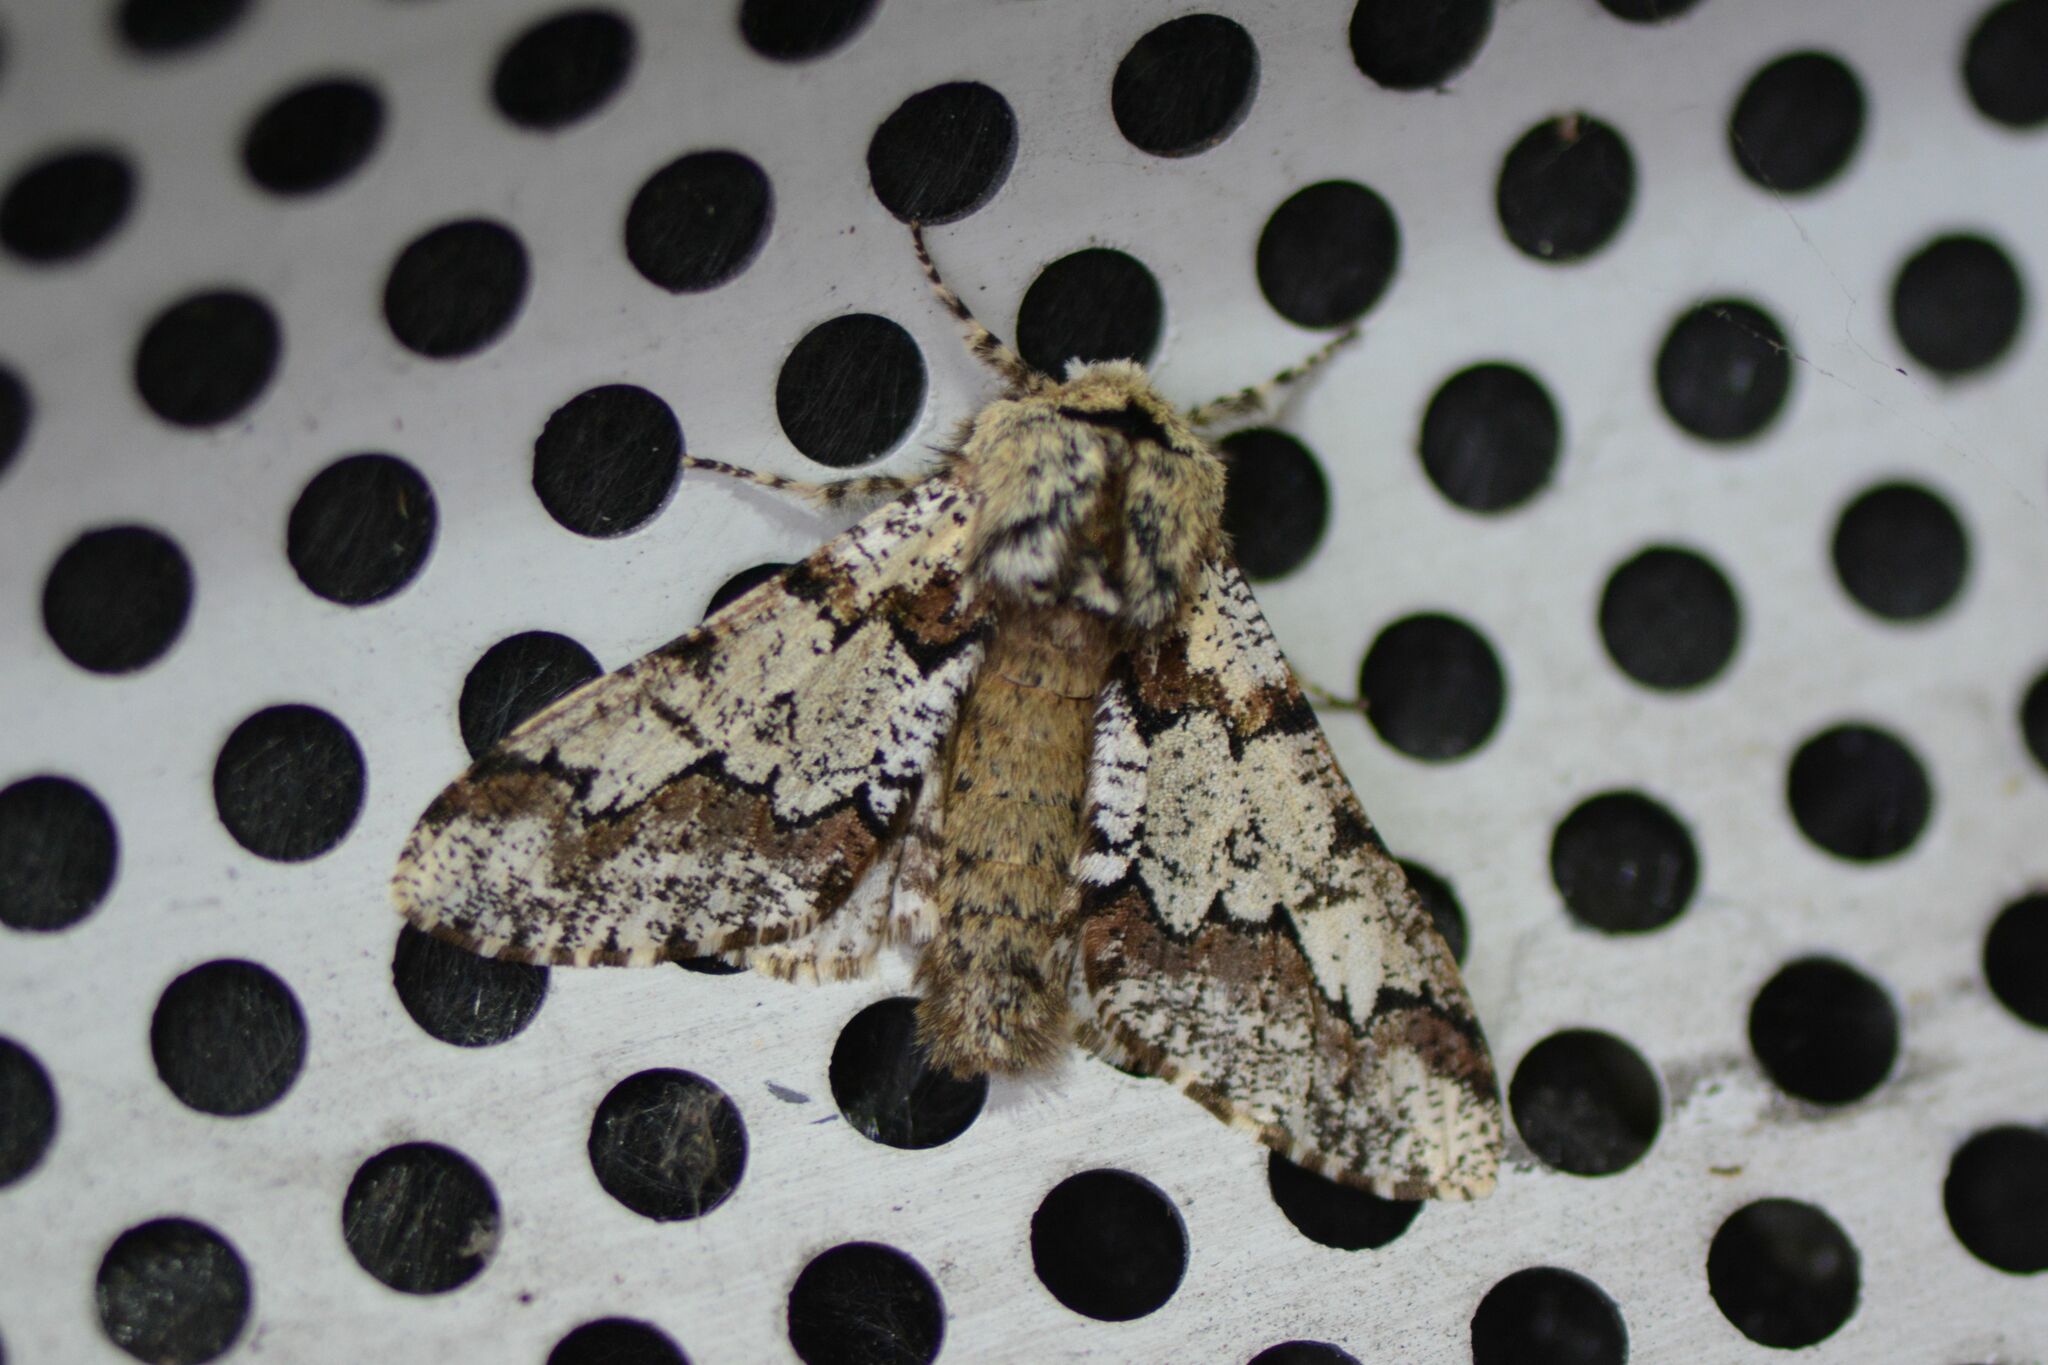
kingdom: Animalia
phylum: Arthropoda
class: Insecta
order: Lepidoptera
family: Geometridae
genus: Biston
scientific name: Biston strataria
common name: Oak beauty
